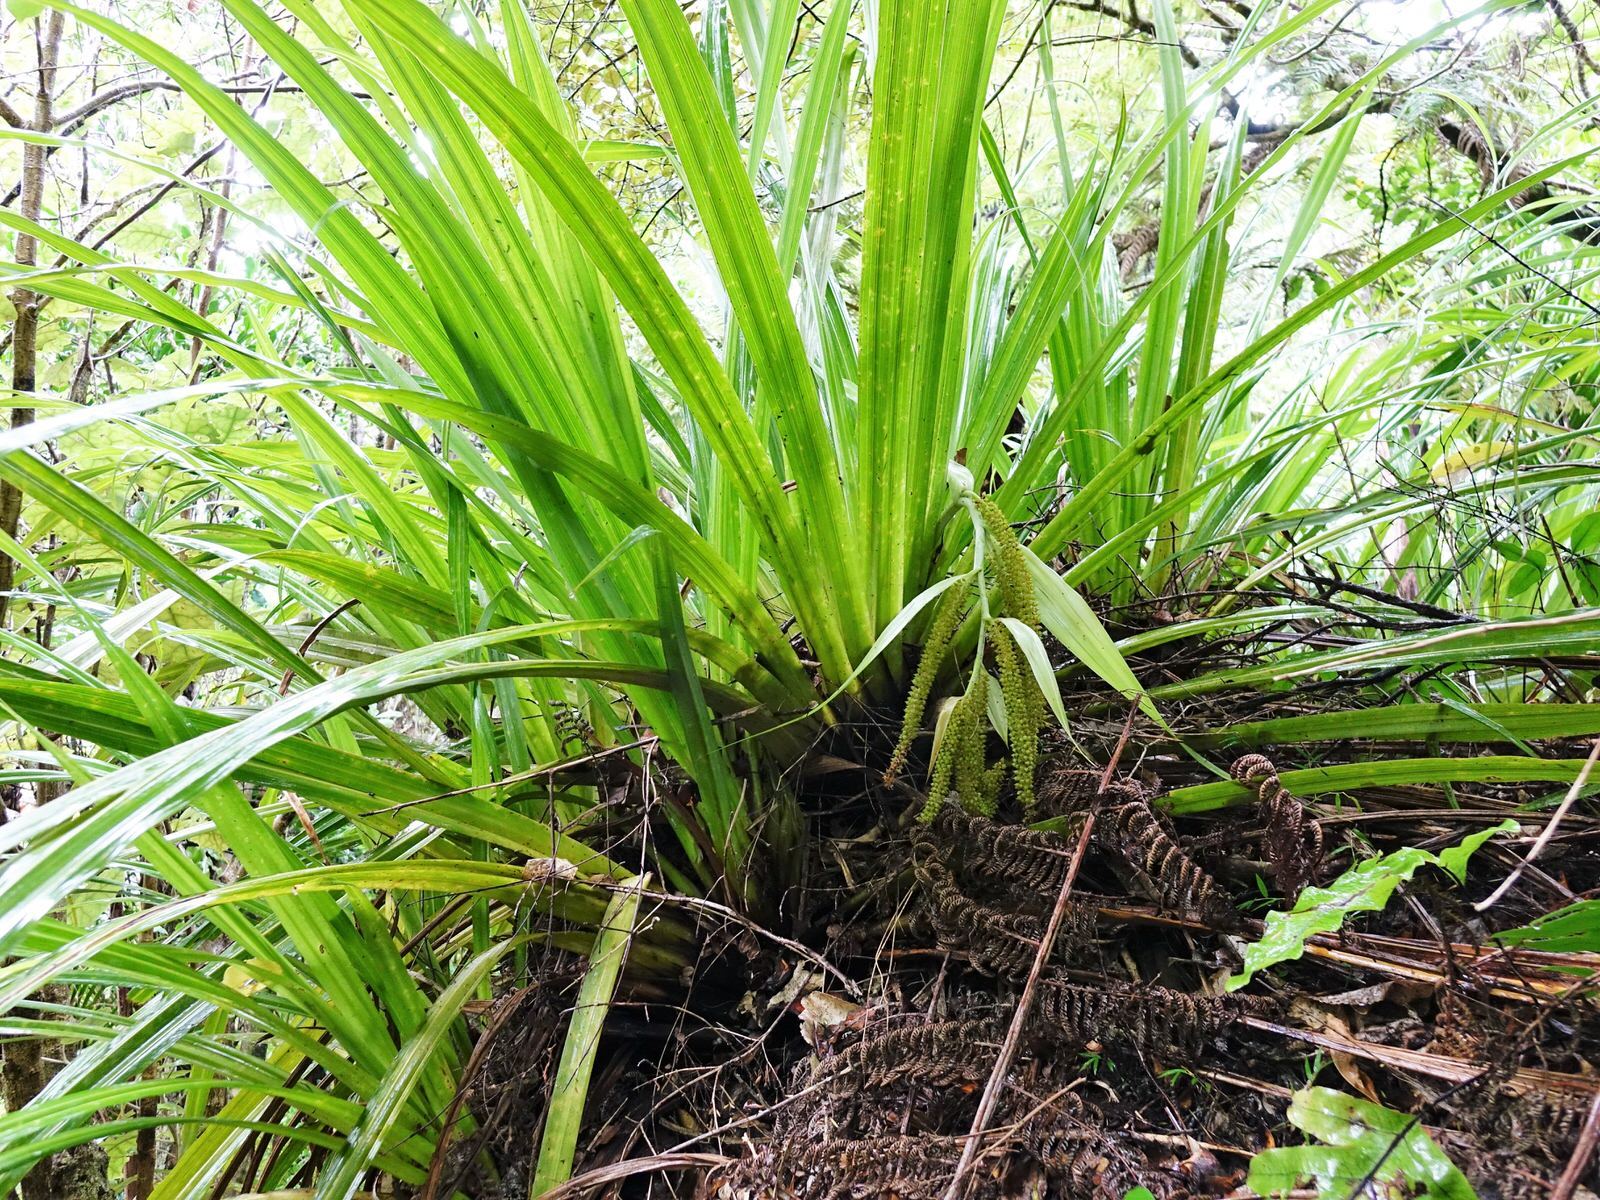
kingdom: Plantae
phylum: Tracheophyta
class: Liliopsida
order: Asparagales
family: Asteliaceae
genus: Astelia
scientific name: Astelia hastata
